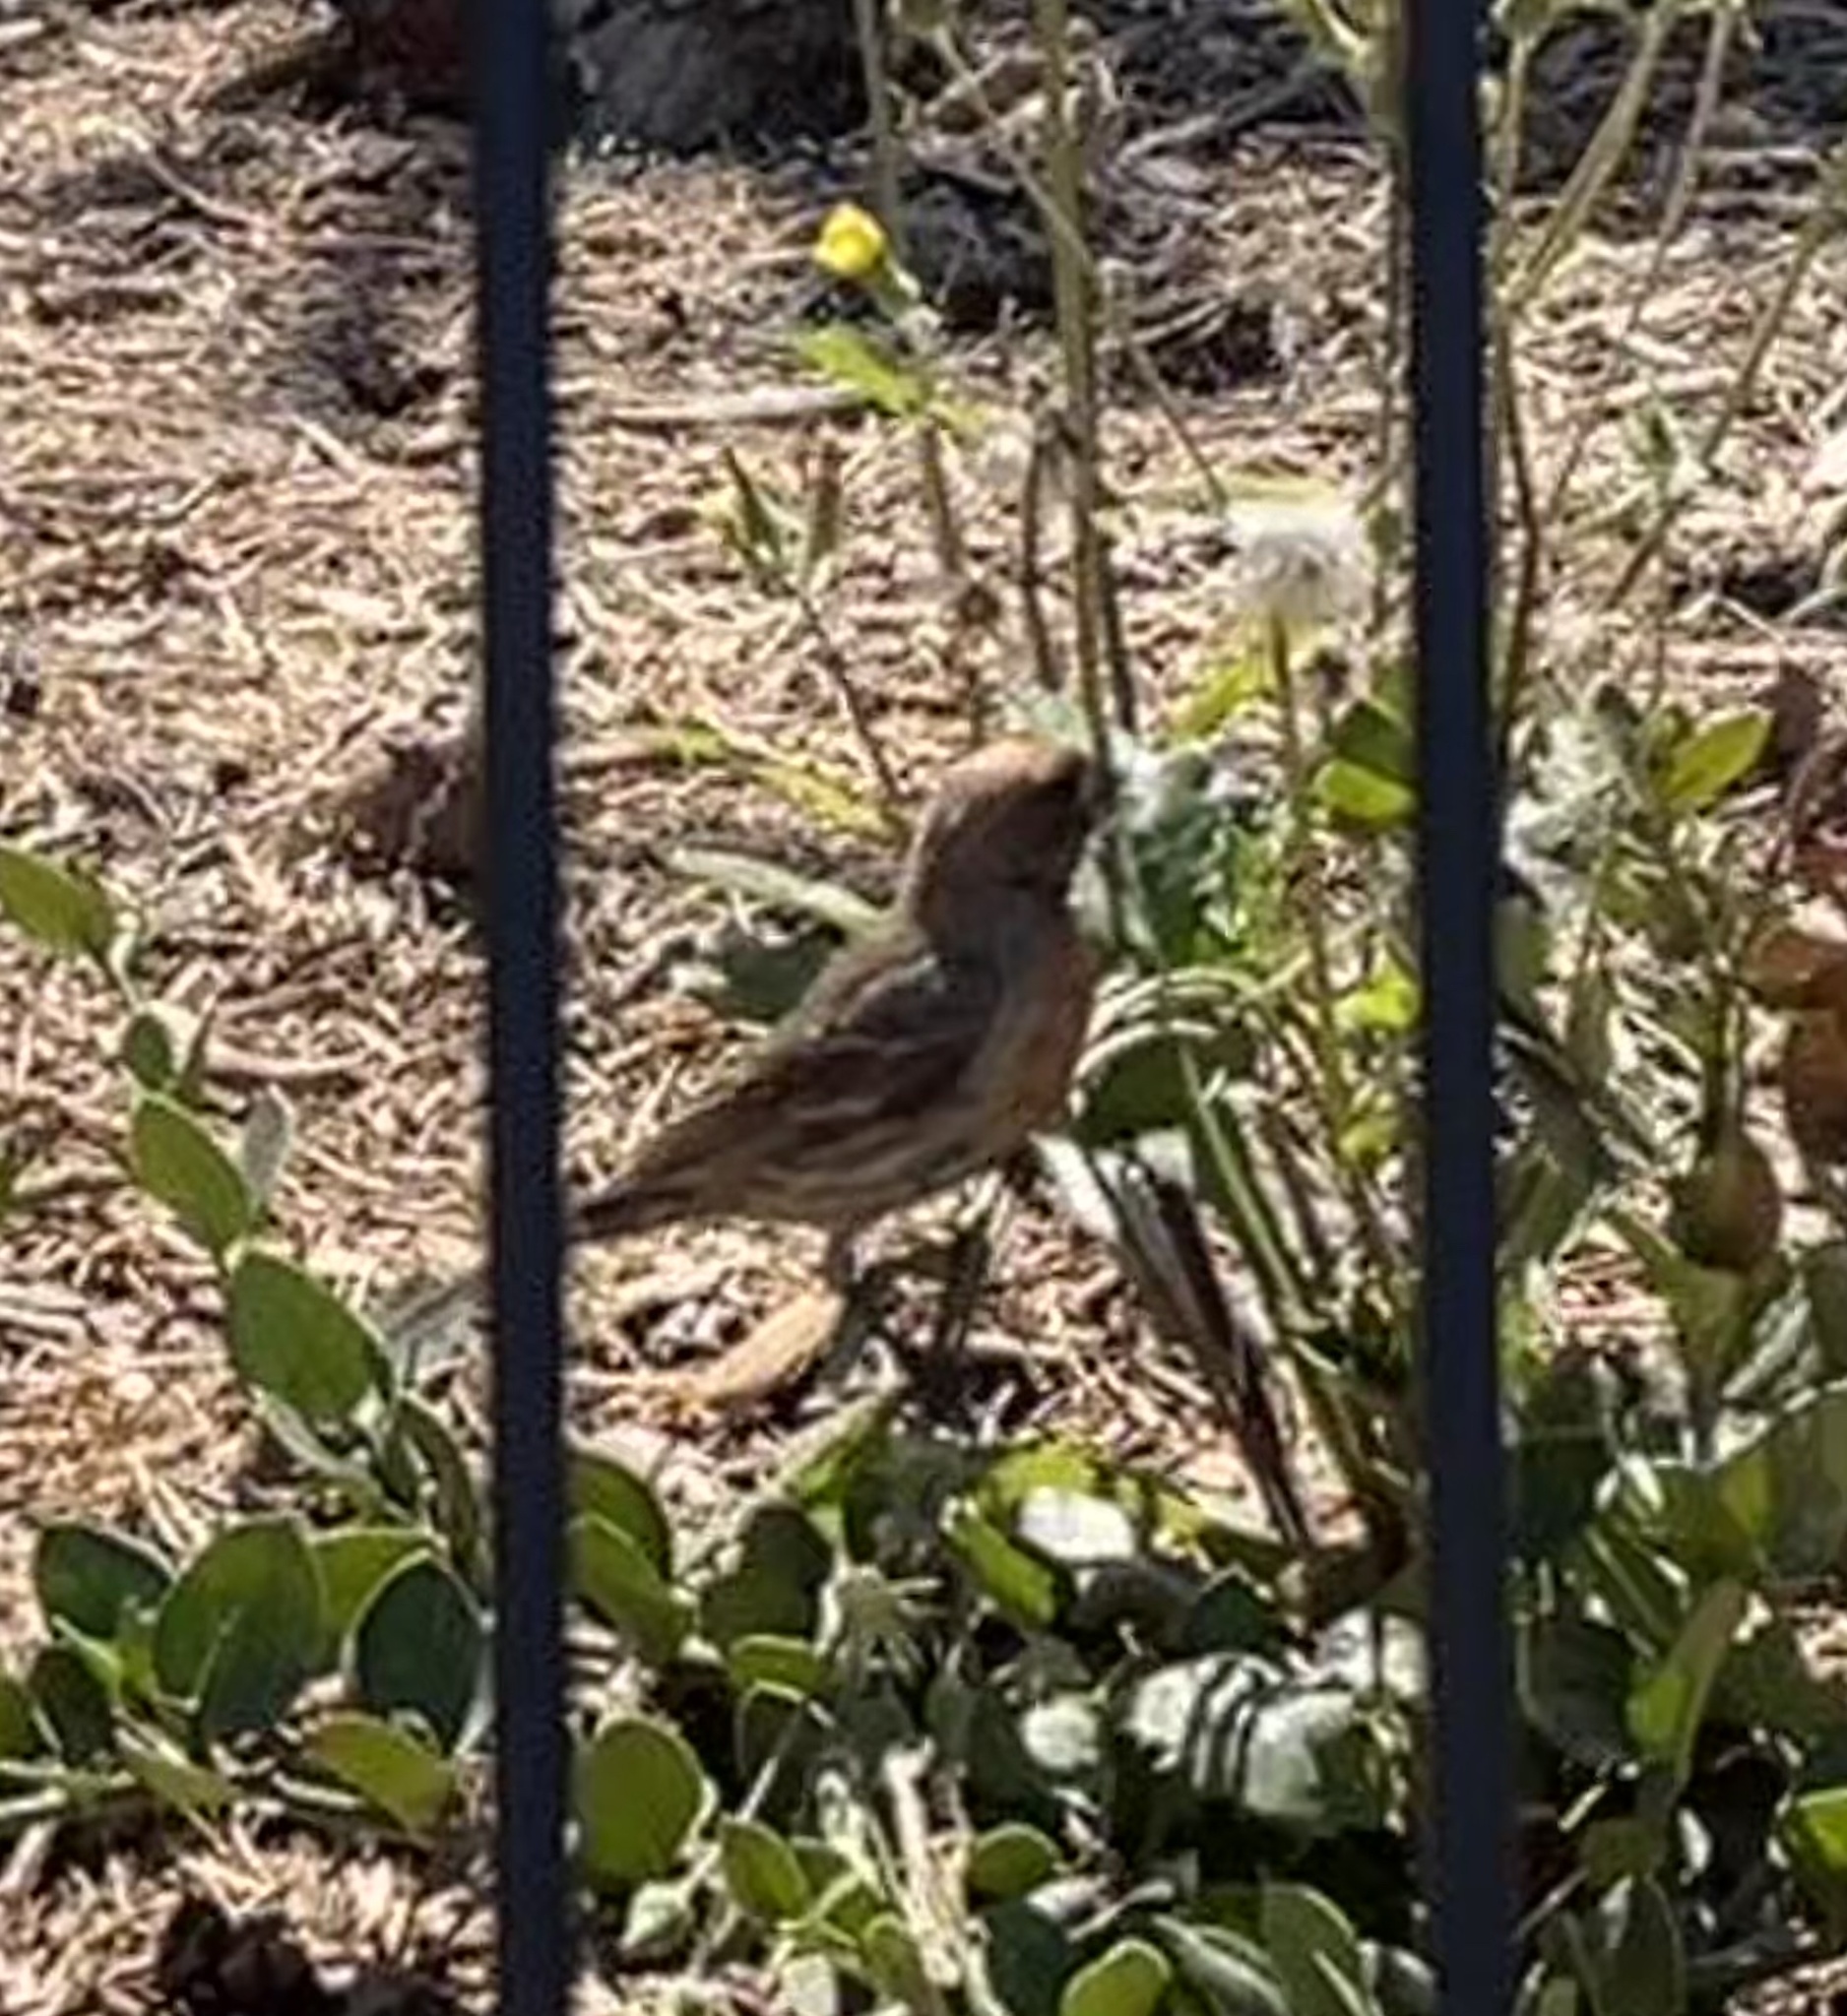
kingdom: Animalia
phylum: Chordata
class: Aves
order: Passeriformes
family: Fringillidae
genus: Haemorhous
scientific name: Haemorhous mexicanus
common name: House finch
